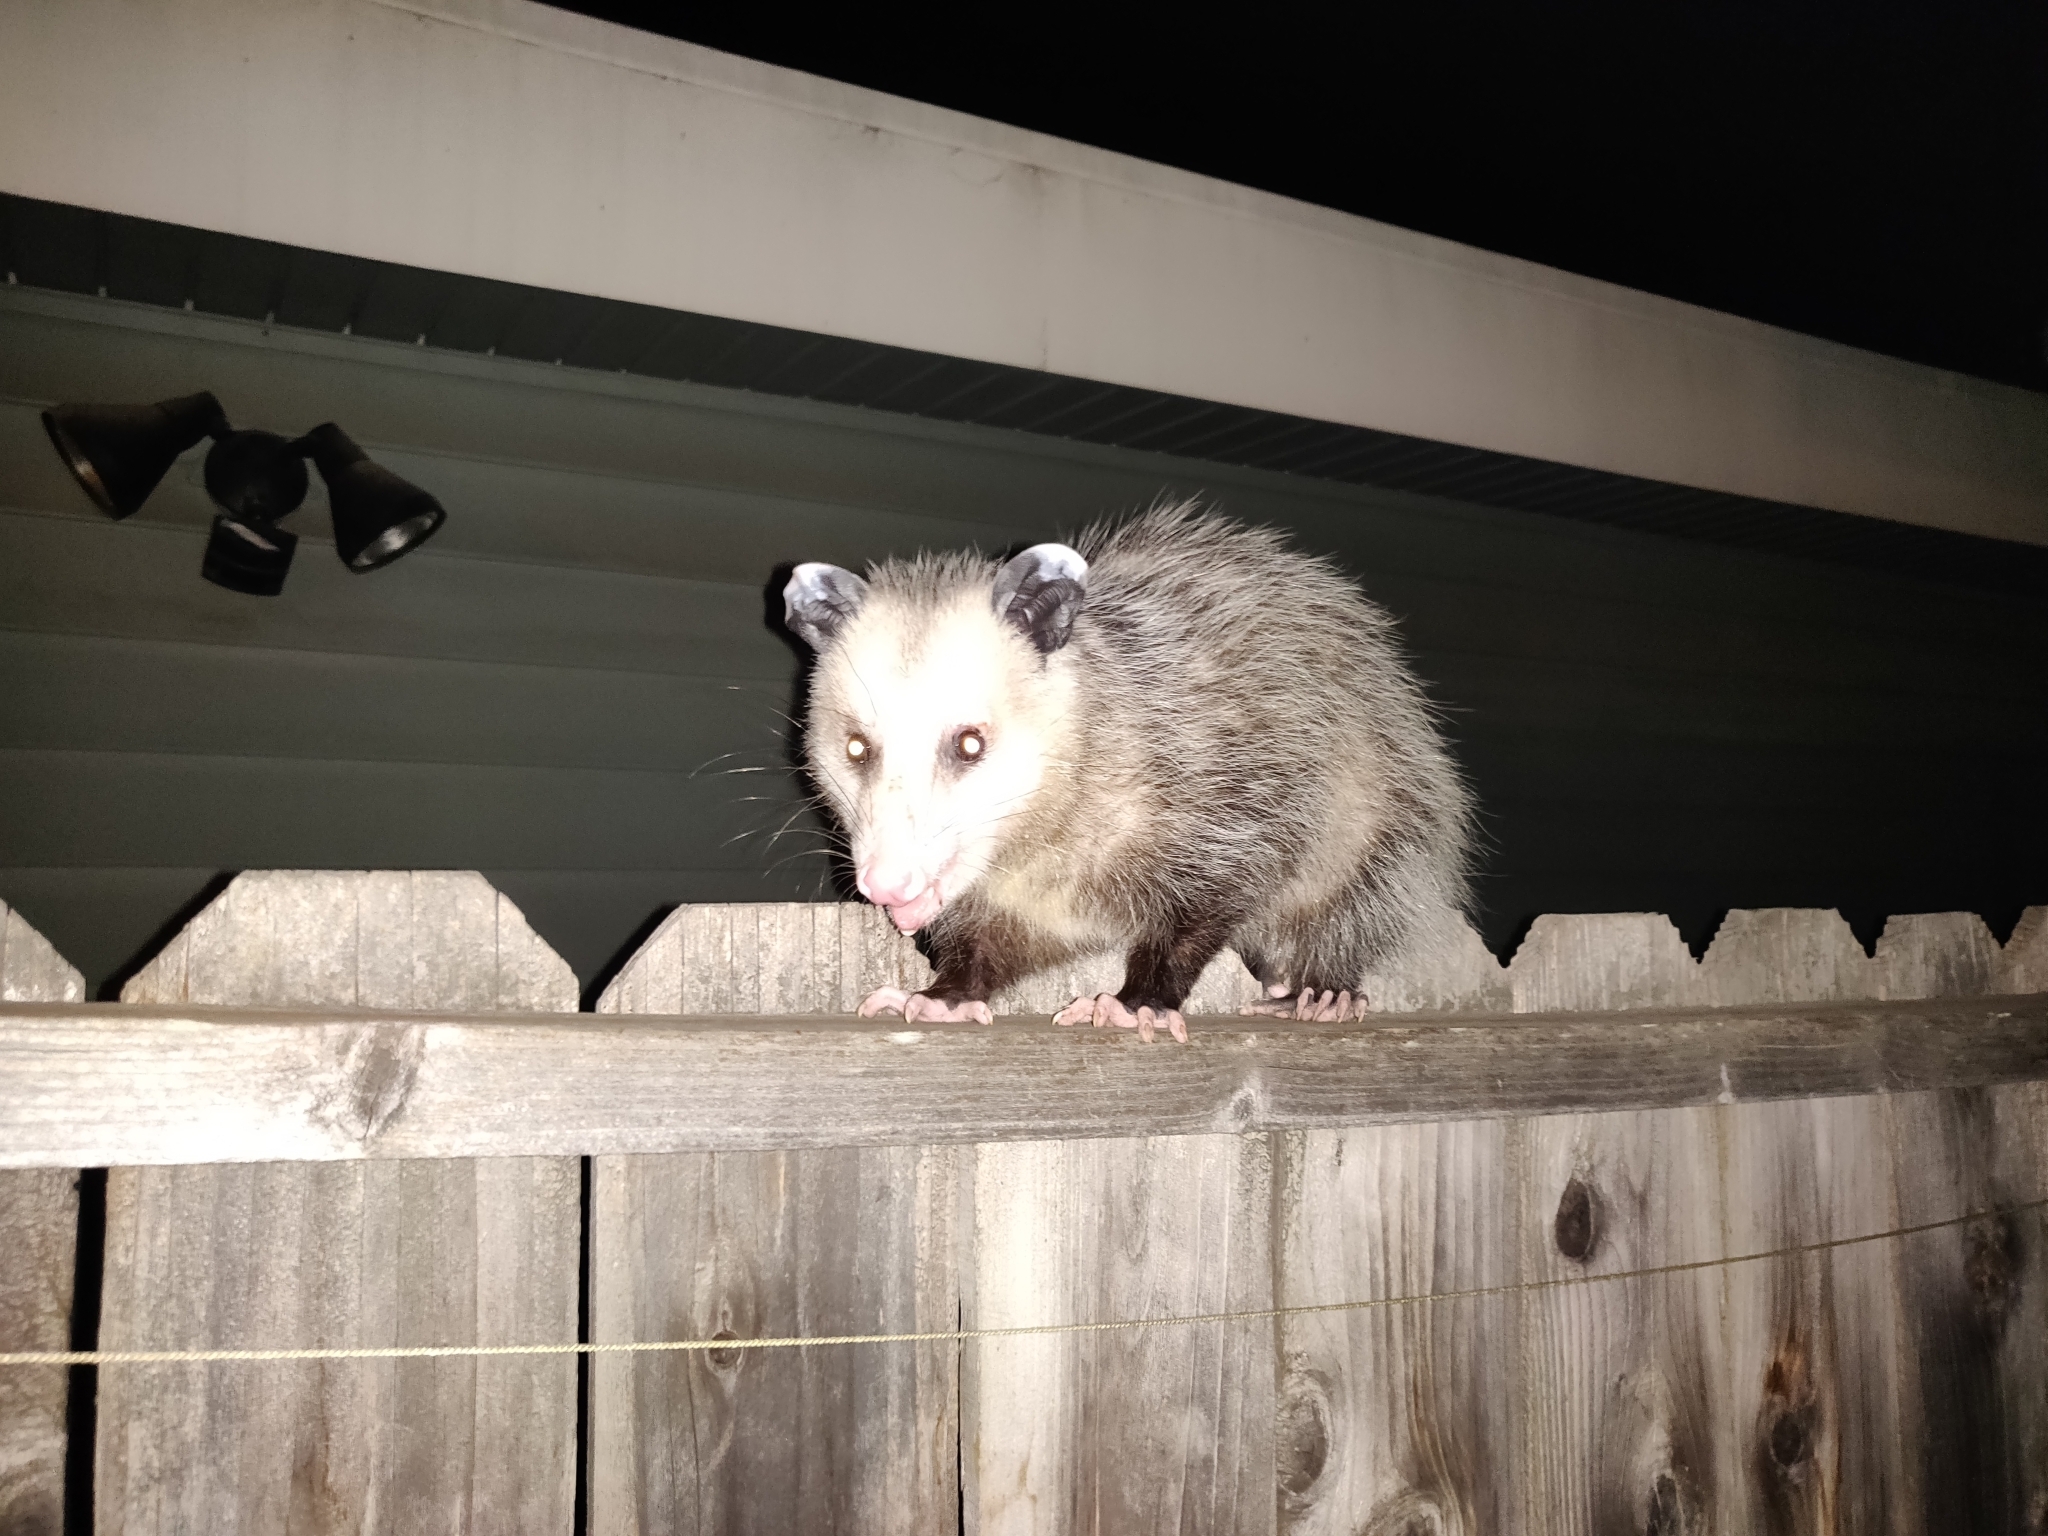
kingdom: Animalia
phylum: Chordata
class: Mammalia
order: Didelphimorphia
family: Didelphidae
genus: Didelphis
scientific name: Didelphis virginiana
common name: Virginia opossum
